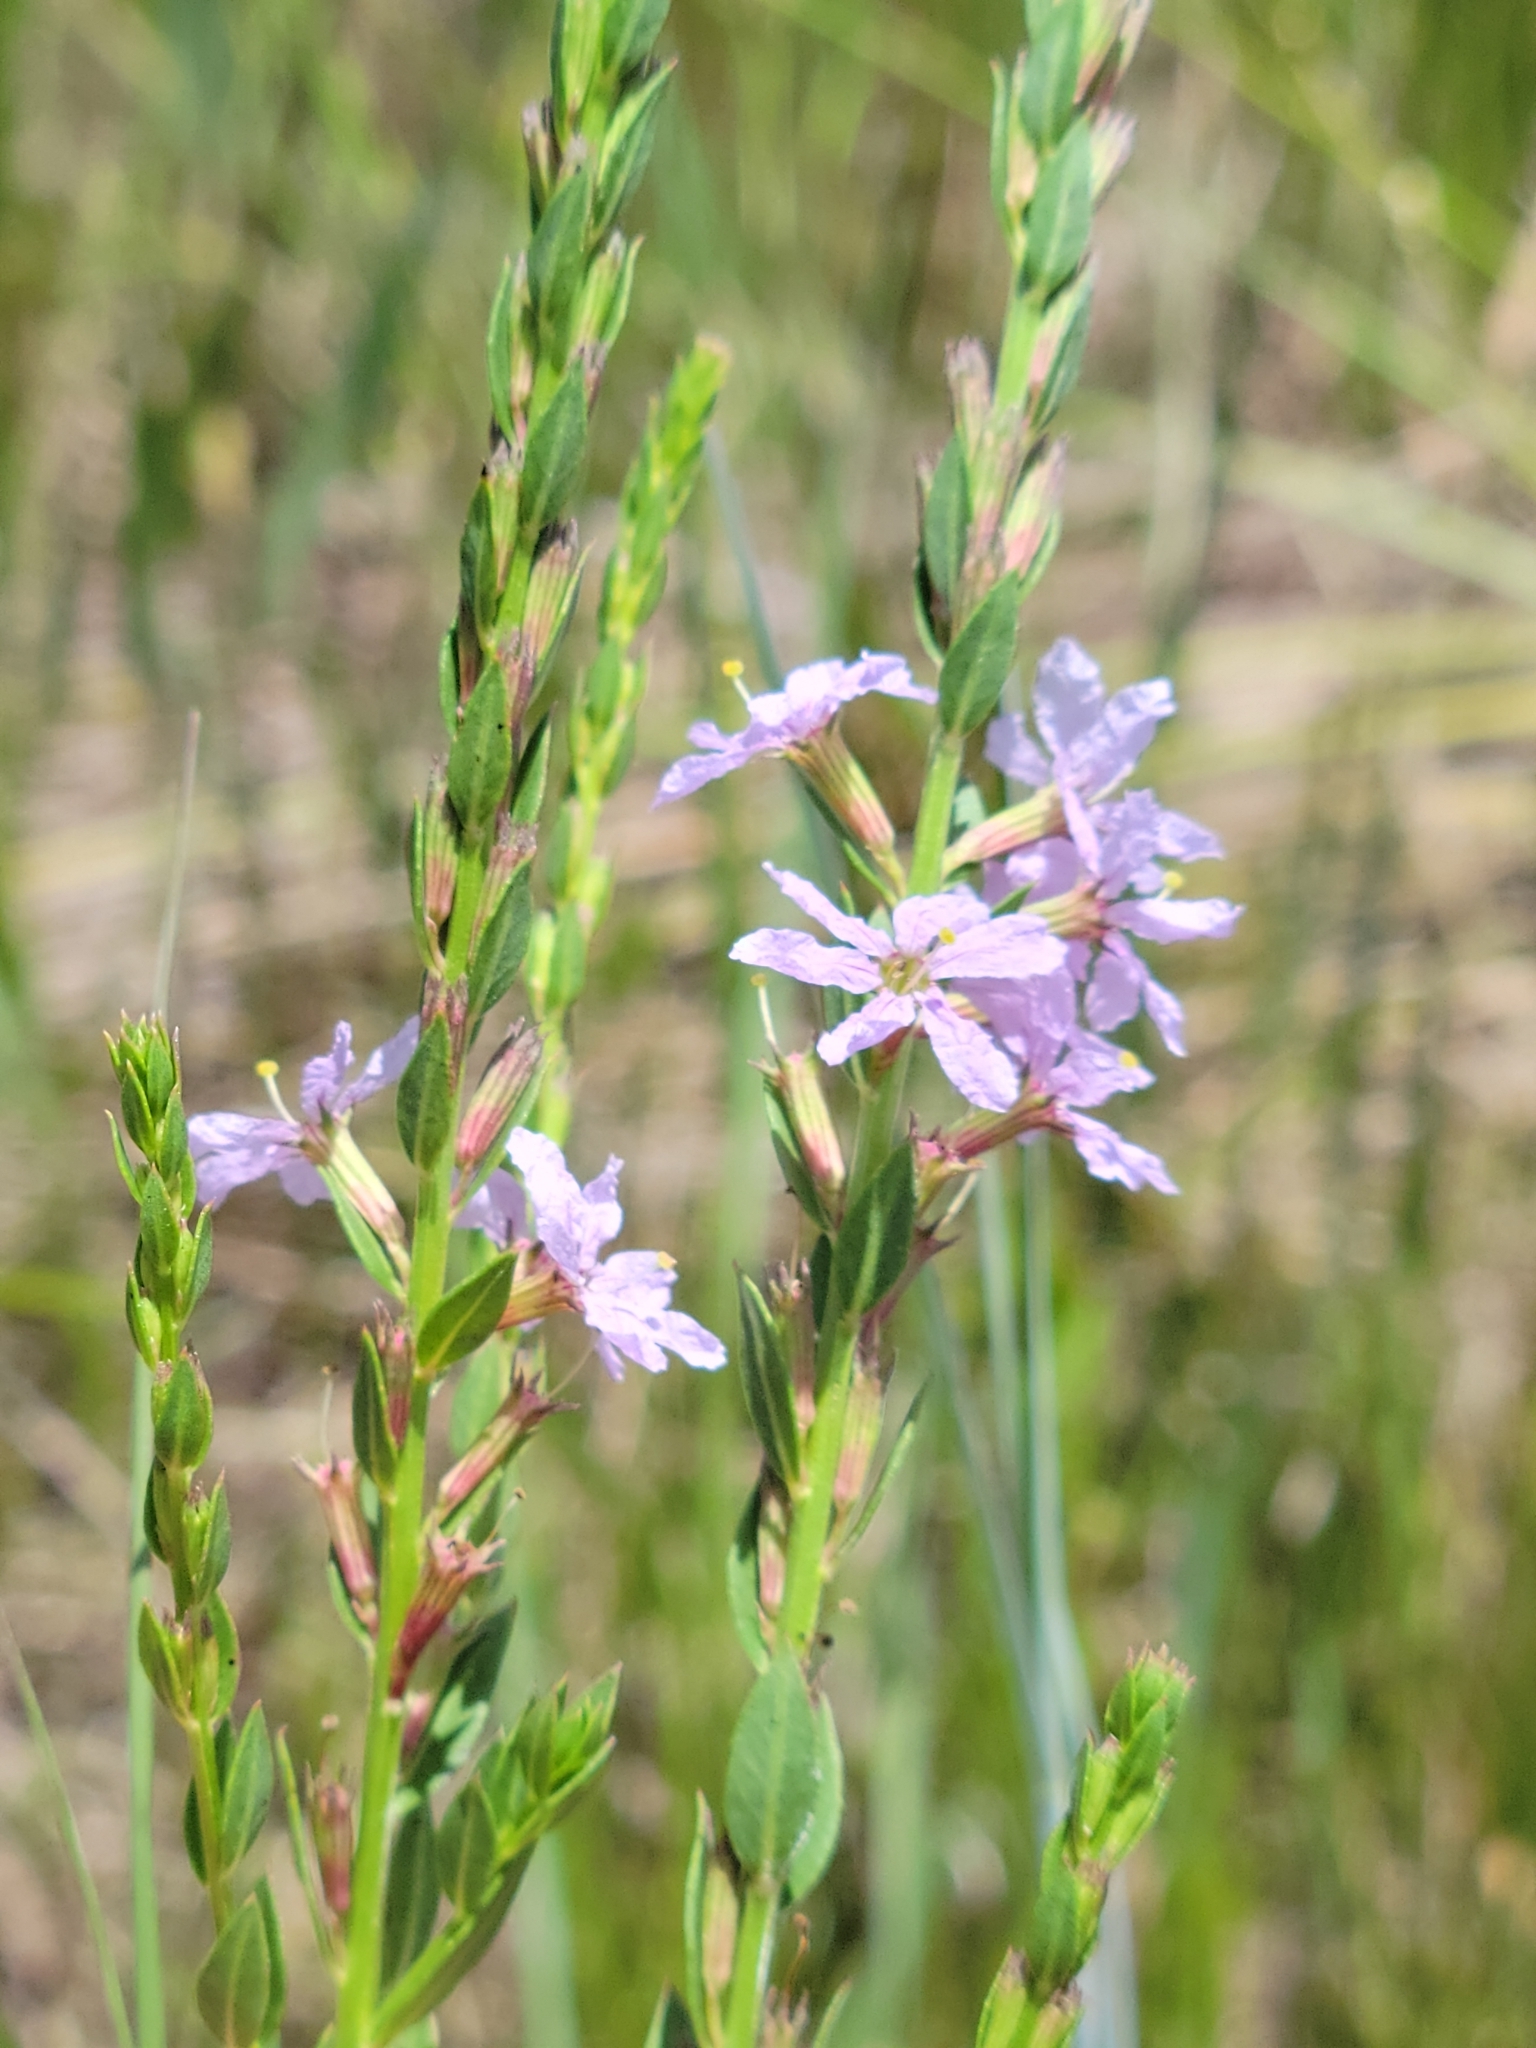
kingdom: Plantae
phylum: Tracheophyta
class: Magnoliopsida
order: Myrtales
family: Lythraceae
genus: Lythrum
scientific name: Lythrum alatum
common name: Winged loosestrife
